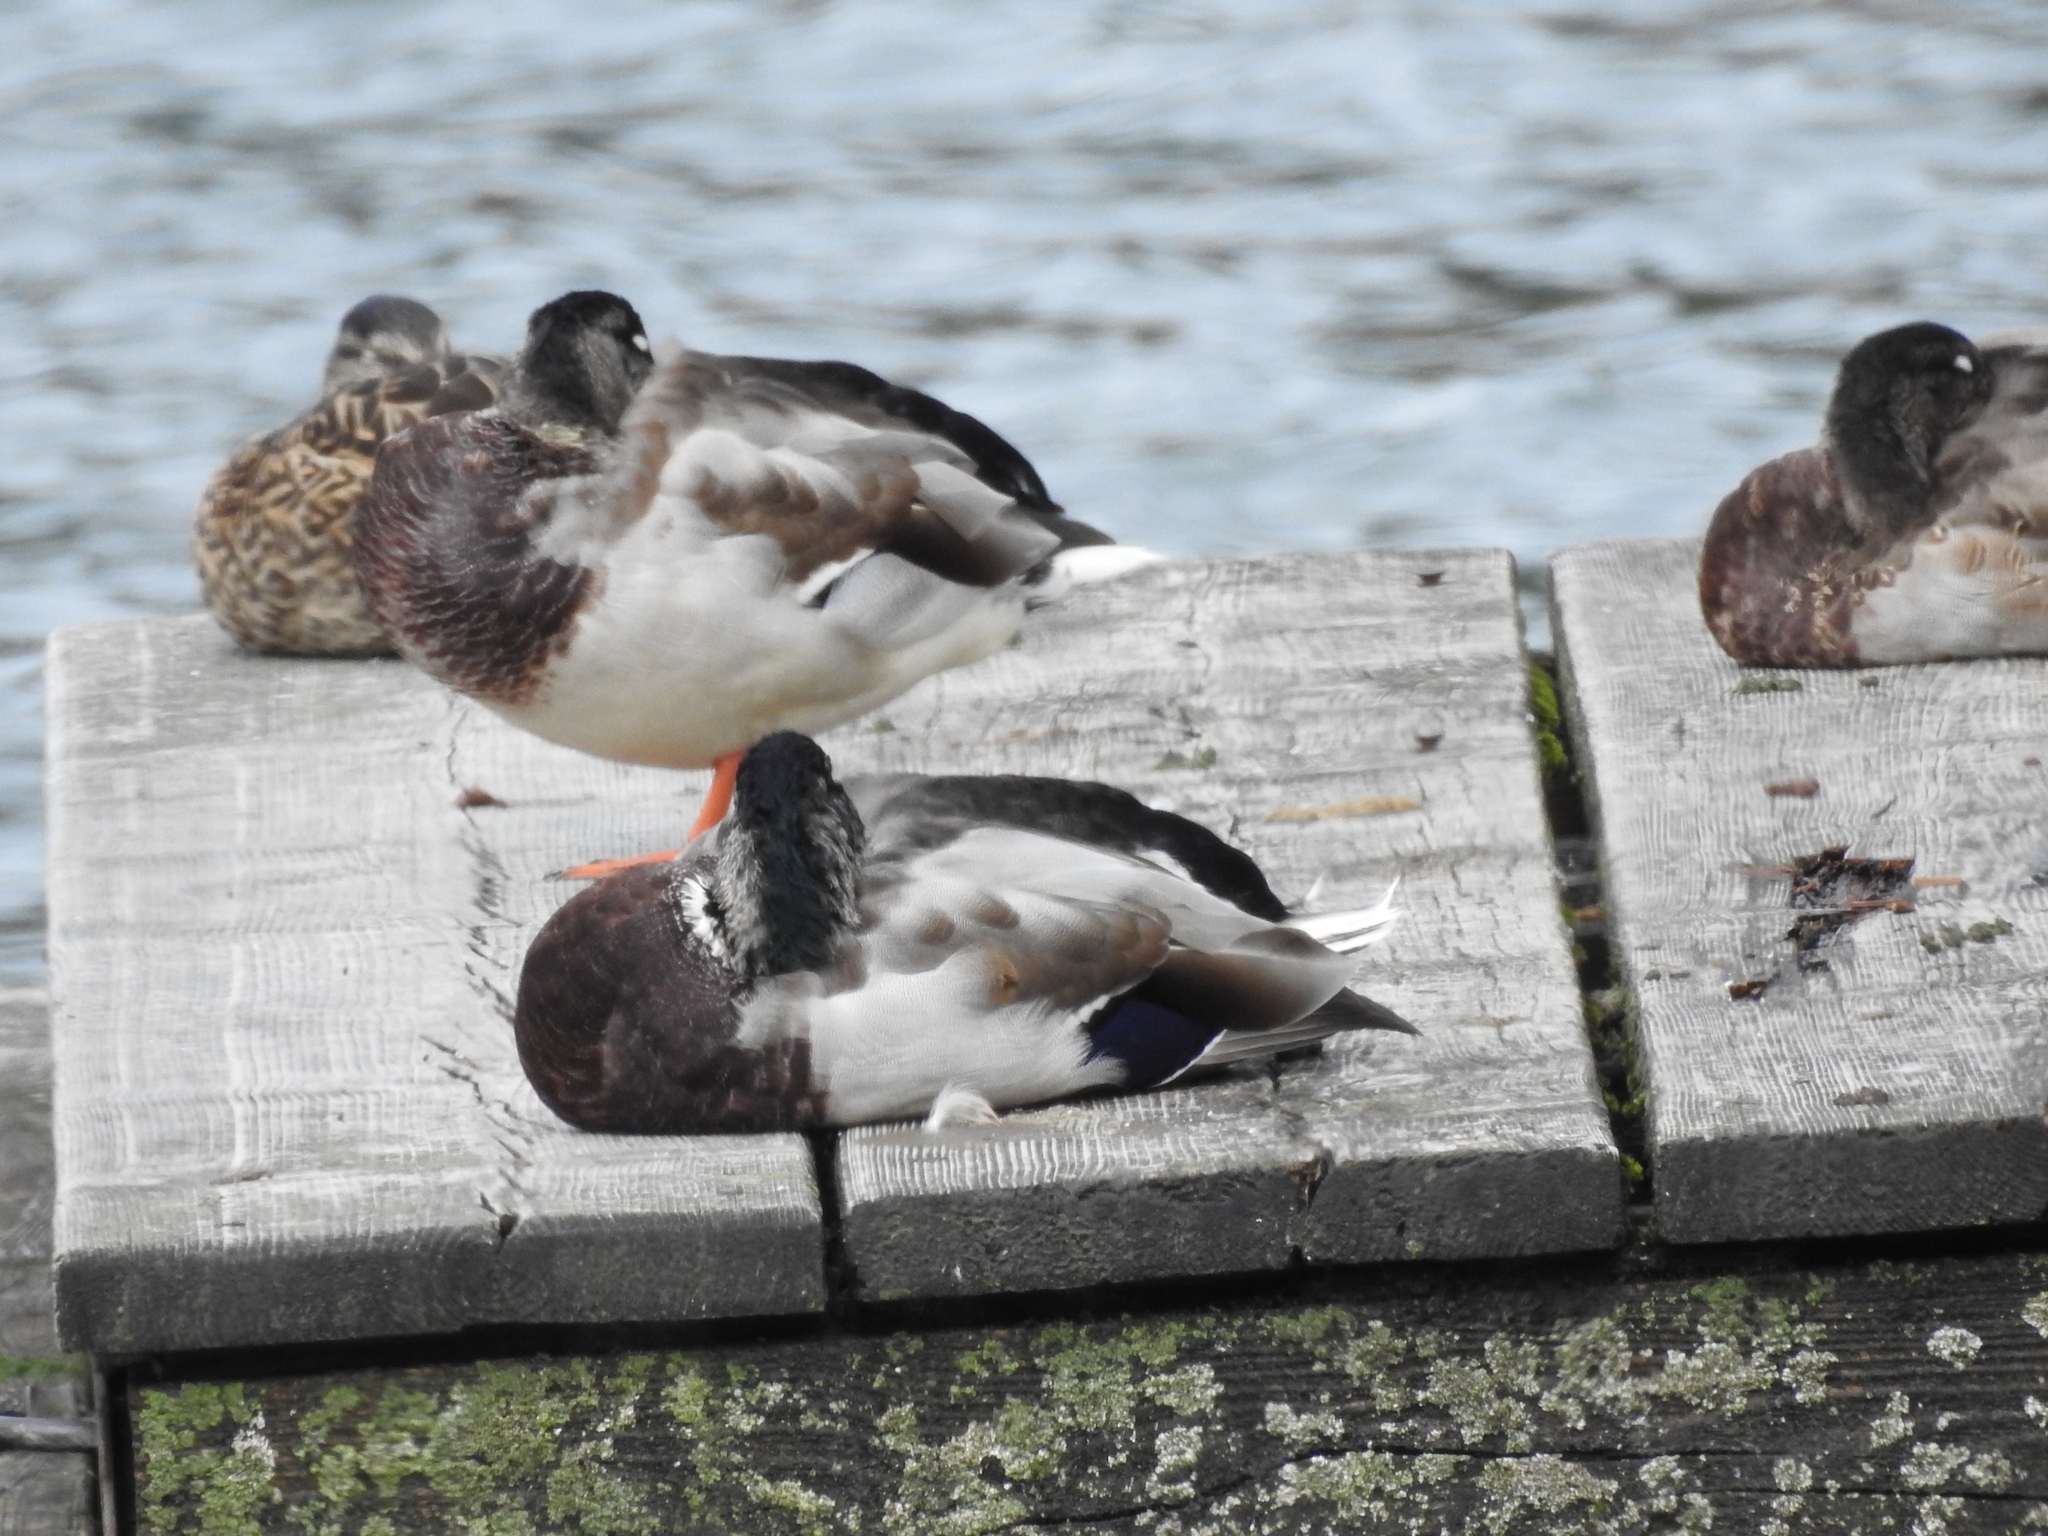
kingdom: Animalia
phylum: Chordata
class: Aves
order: Anseriformes
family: Anatidae
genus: Anas
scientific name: Anas platyrhynchos
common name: Mallard
